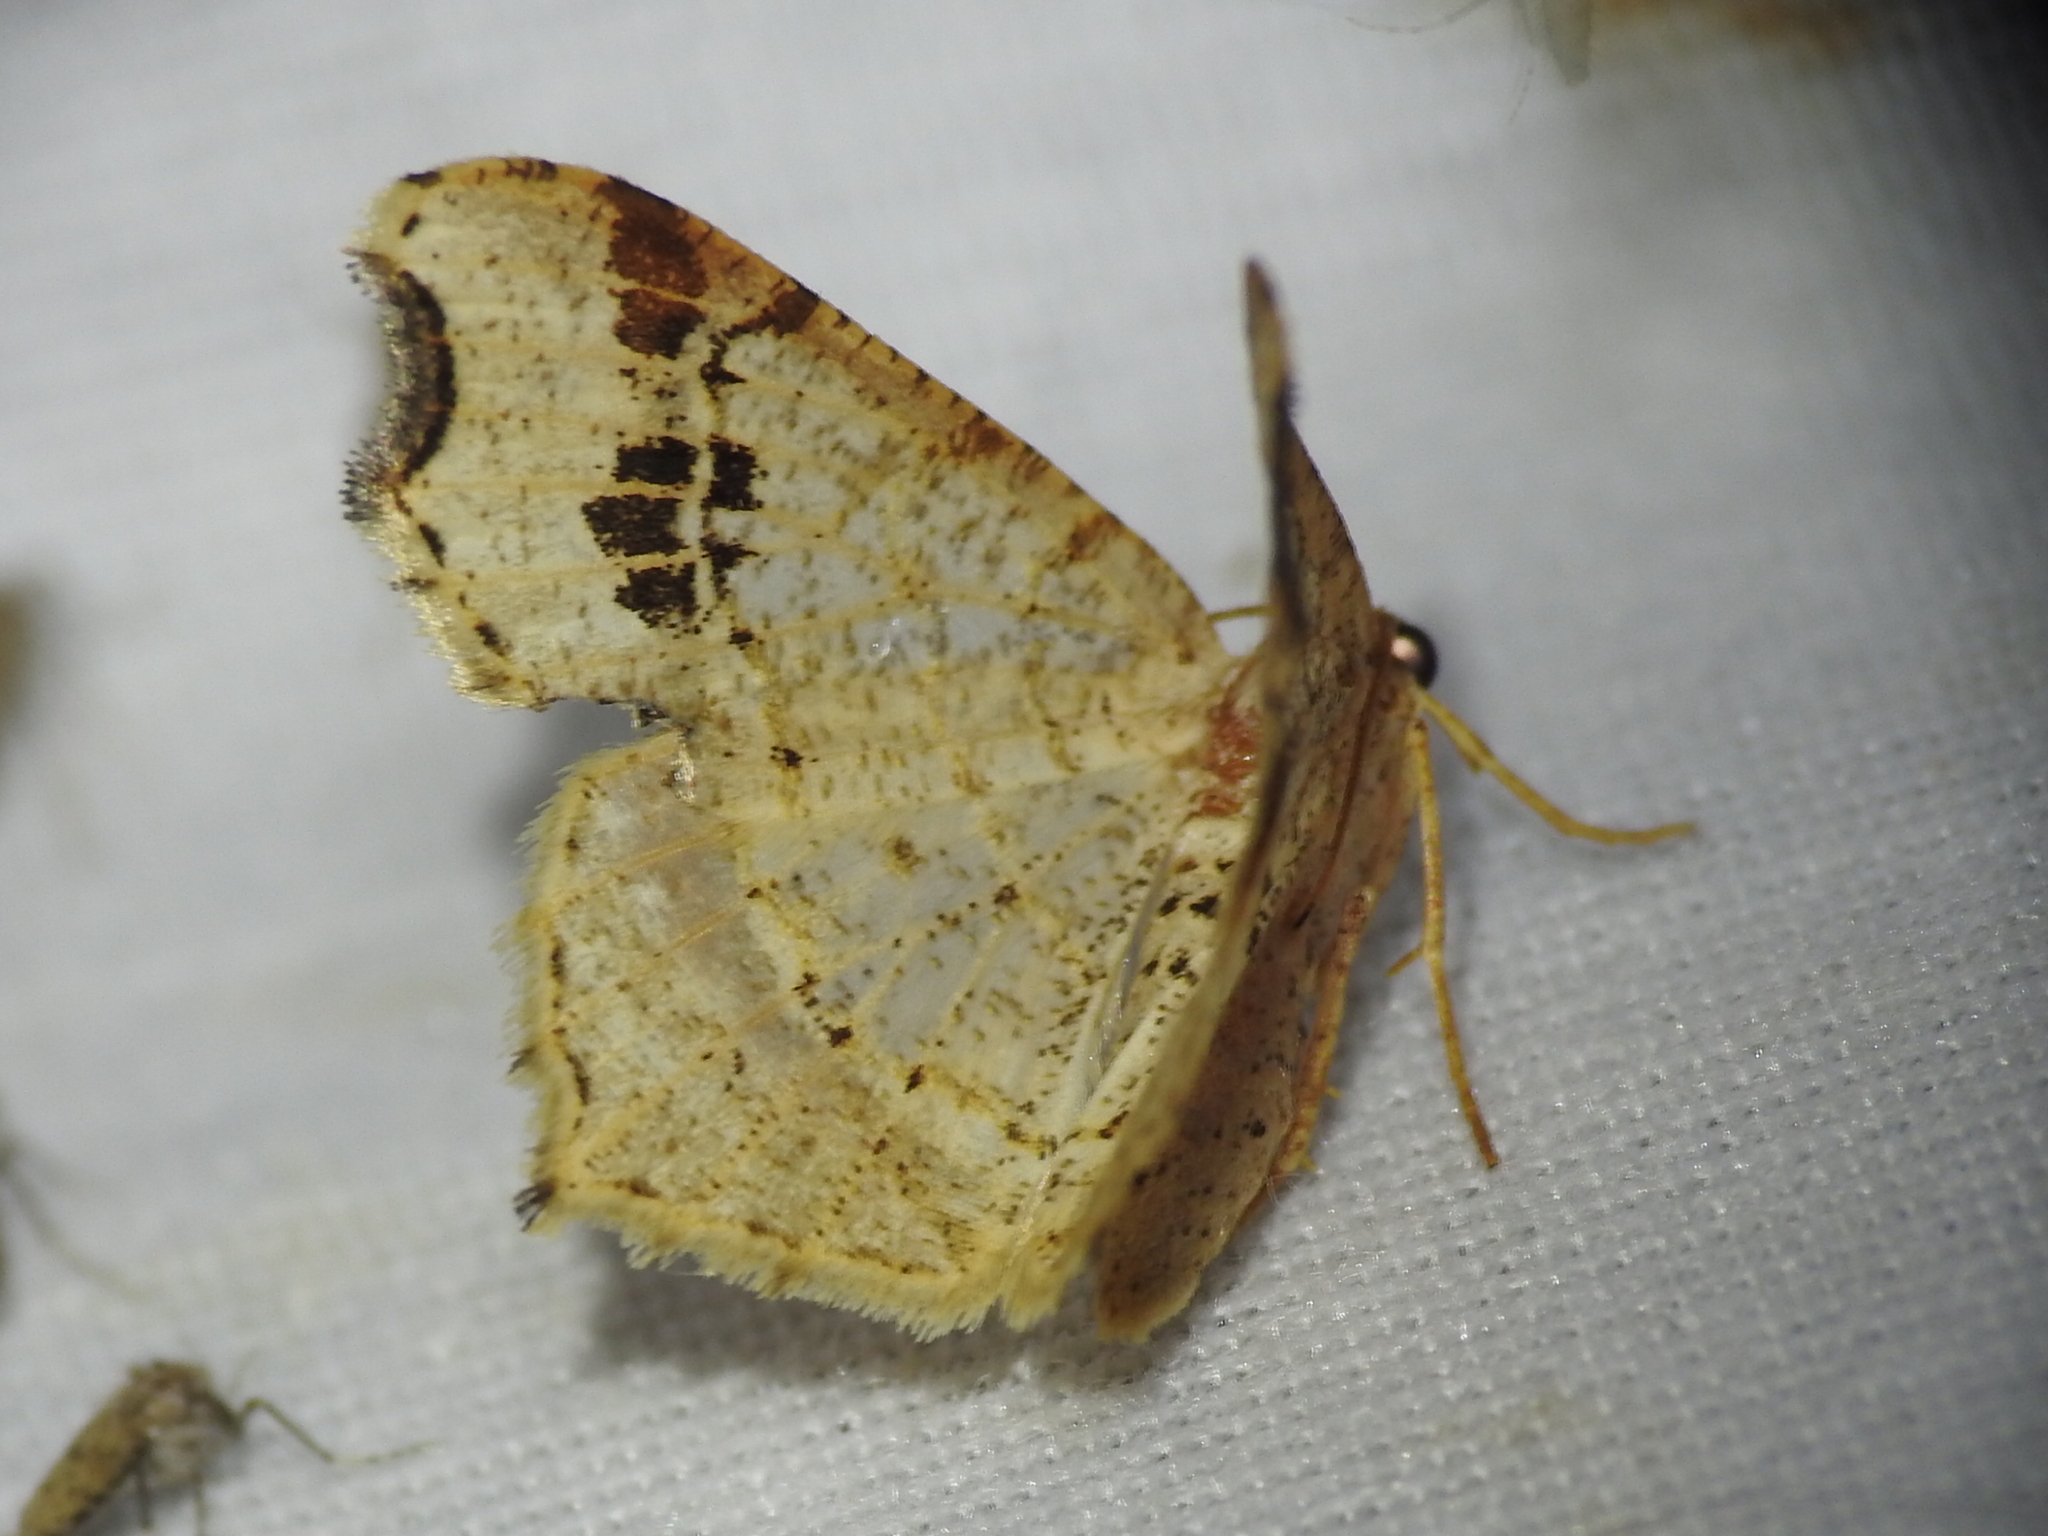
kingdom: Animalia
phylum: Arthropoda
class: Insecta
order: Lepidoptera
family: Geometridae
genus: Macaria
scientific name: Macaria aemulataria
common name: Common angle
